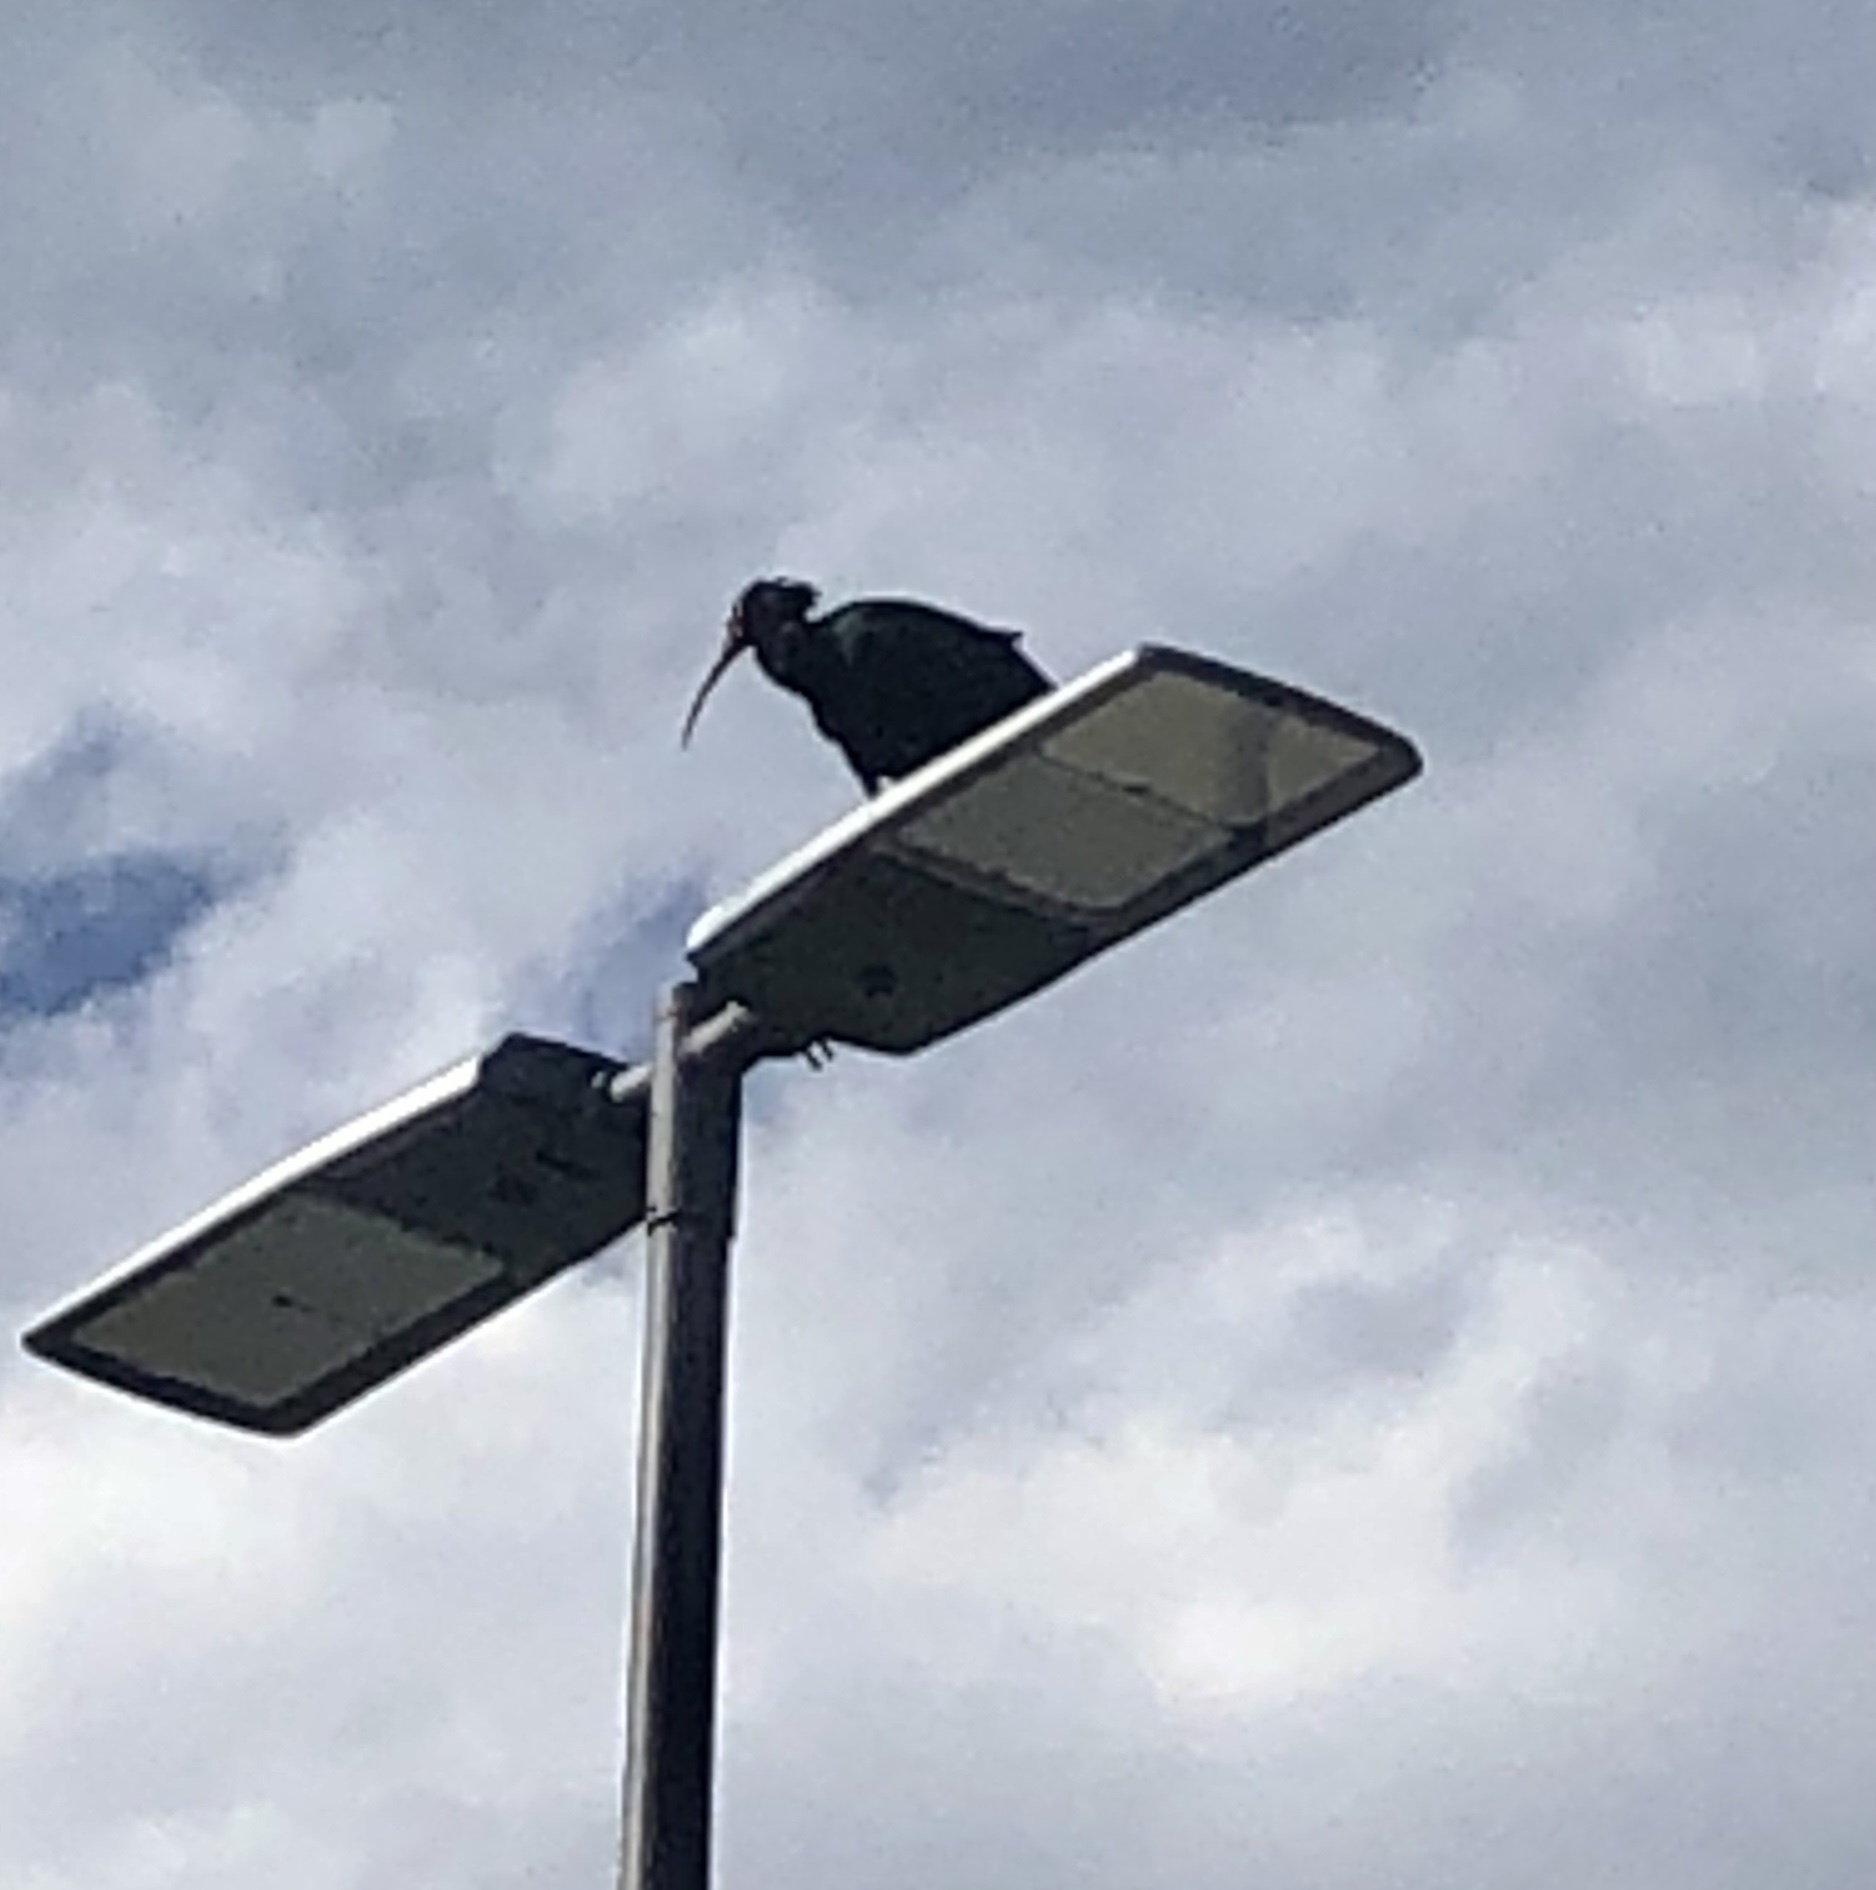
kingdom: Animalia
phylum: Chordata
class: Aves
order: Pelecaniformes
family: Threskiornithidae
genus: Geronticus
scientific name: Geronticus eremita
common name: Northern bald ibis
